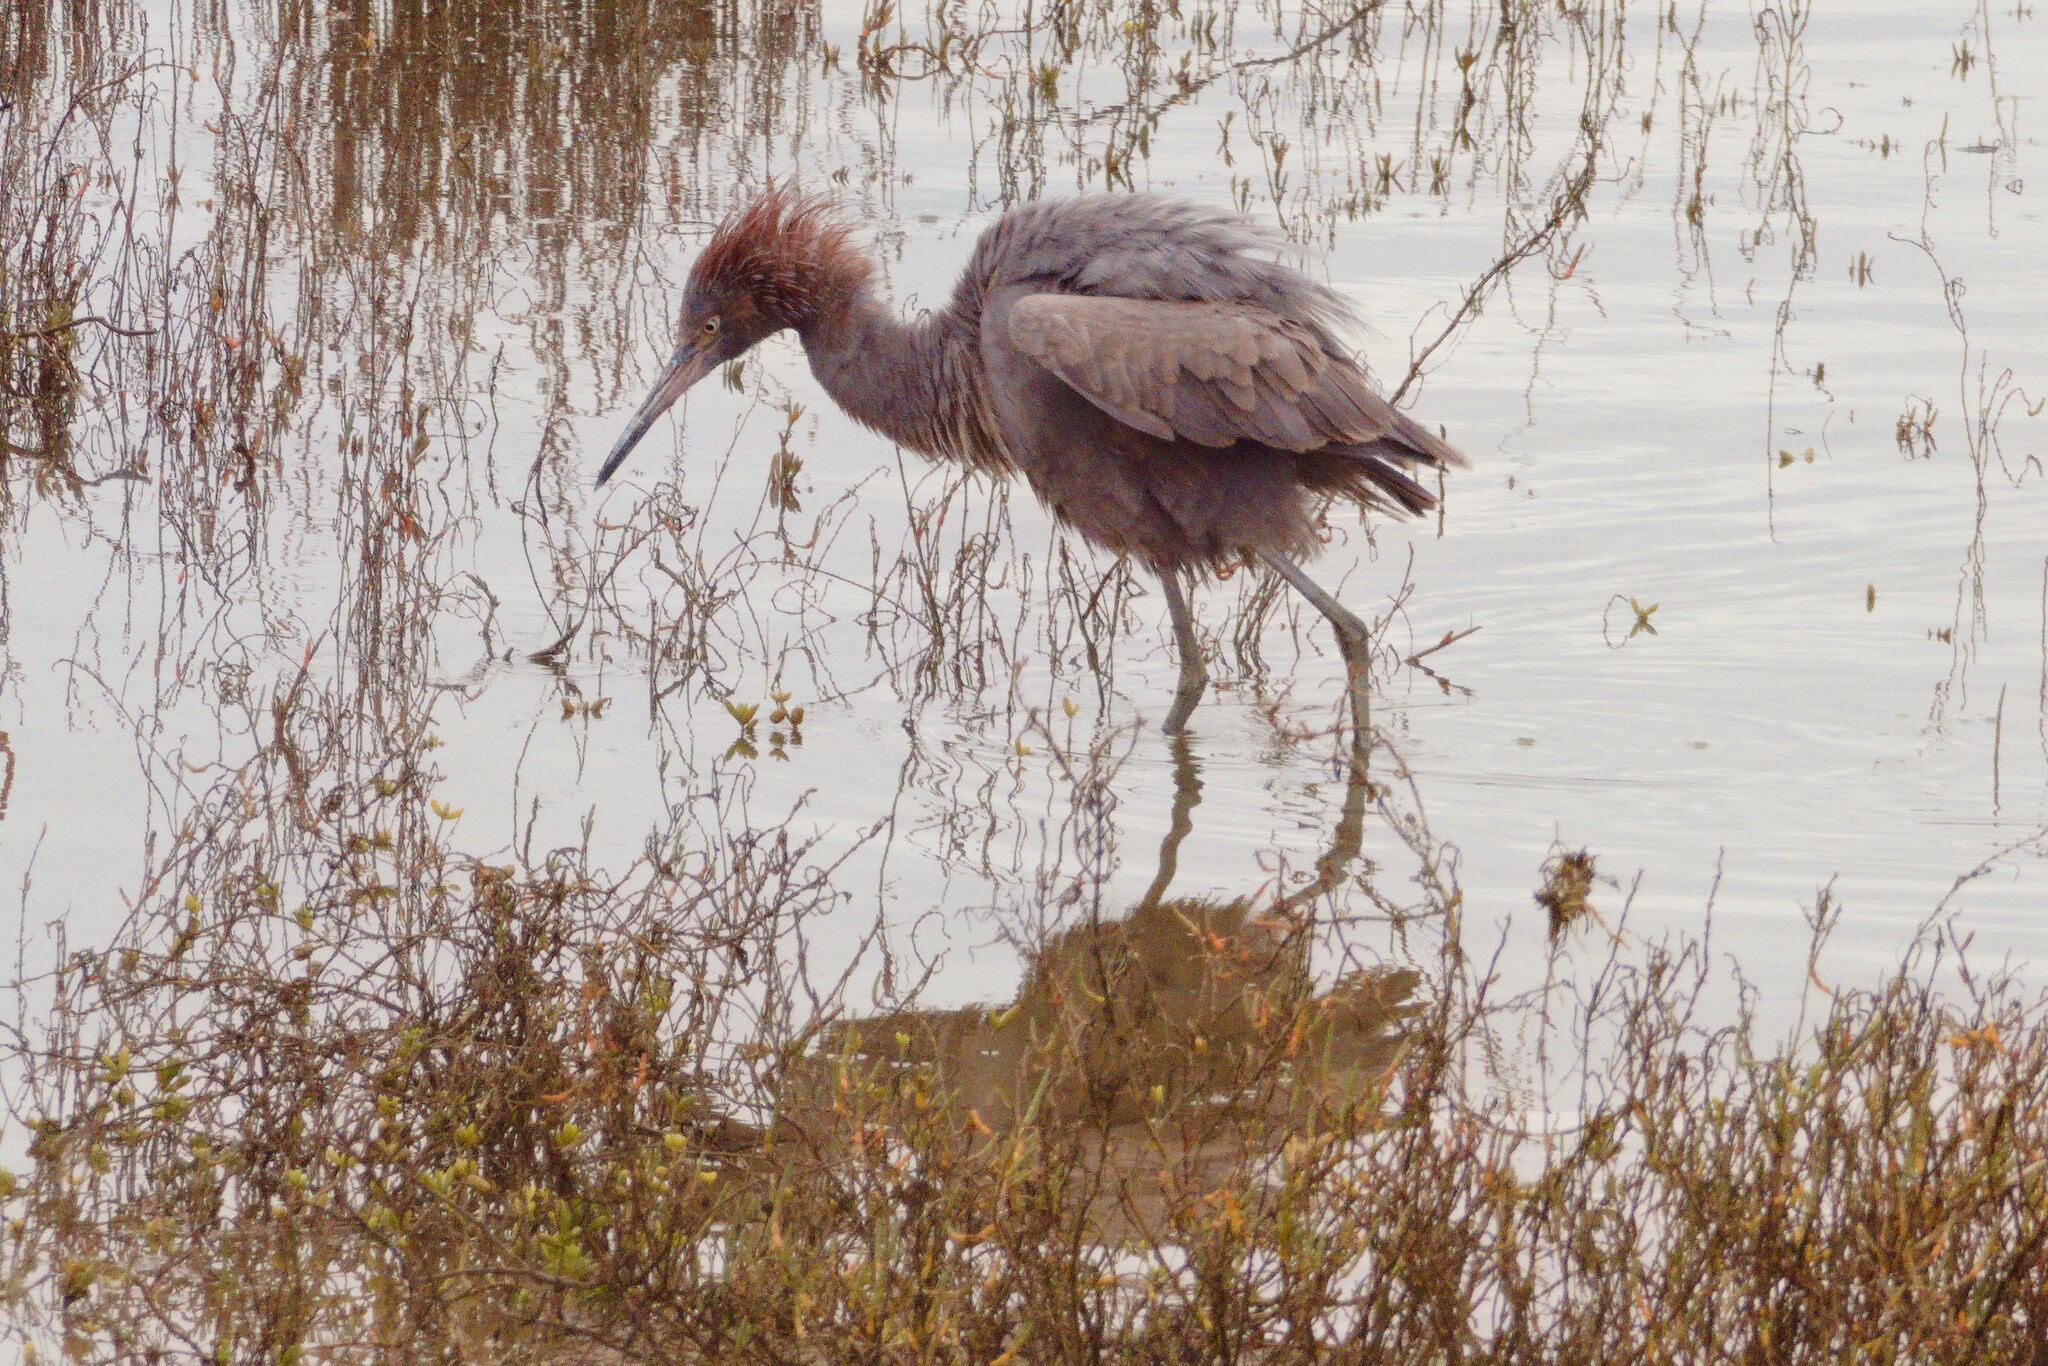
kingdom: Animalia
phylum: Chordata
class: Aves
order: Pelecaniformes
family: Ardeidae
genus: Egretta
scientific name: Egretta rufescens
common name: Reddish egret
